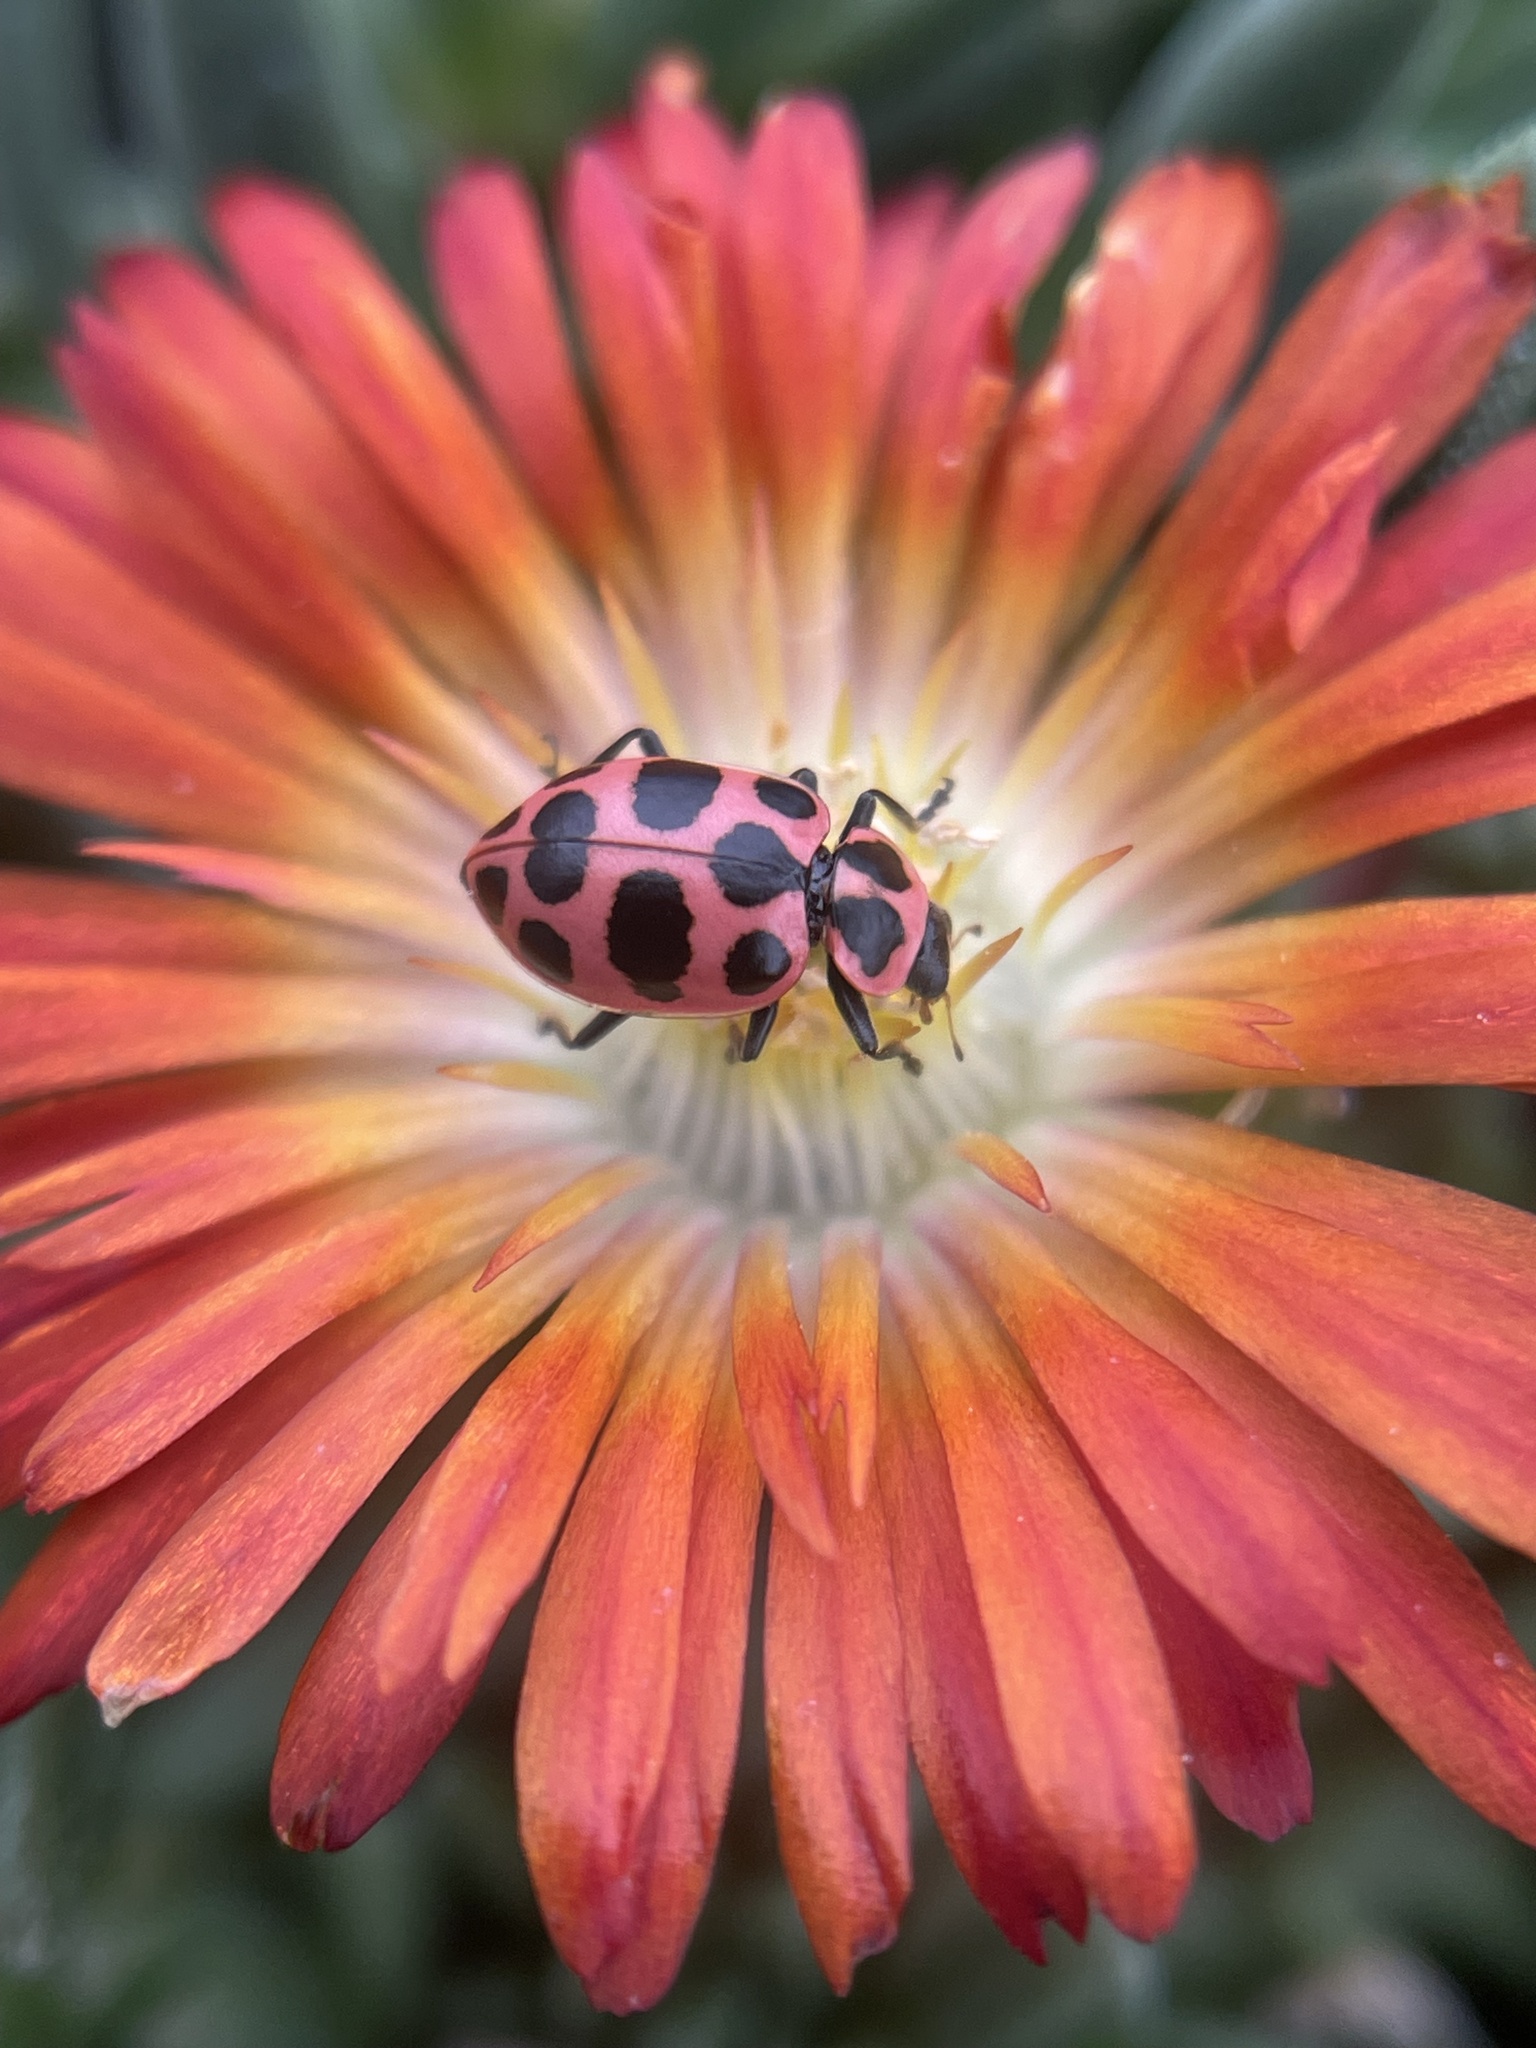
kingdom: Animalia
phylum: Arthropoda
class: Insecta
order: Coleoptera
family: Coccinellidae
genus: Coleomegilla
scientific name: Coleomegilla maculata
